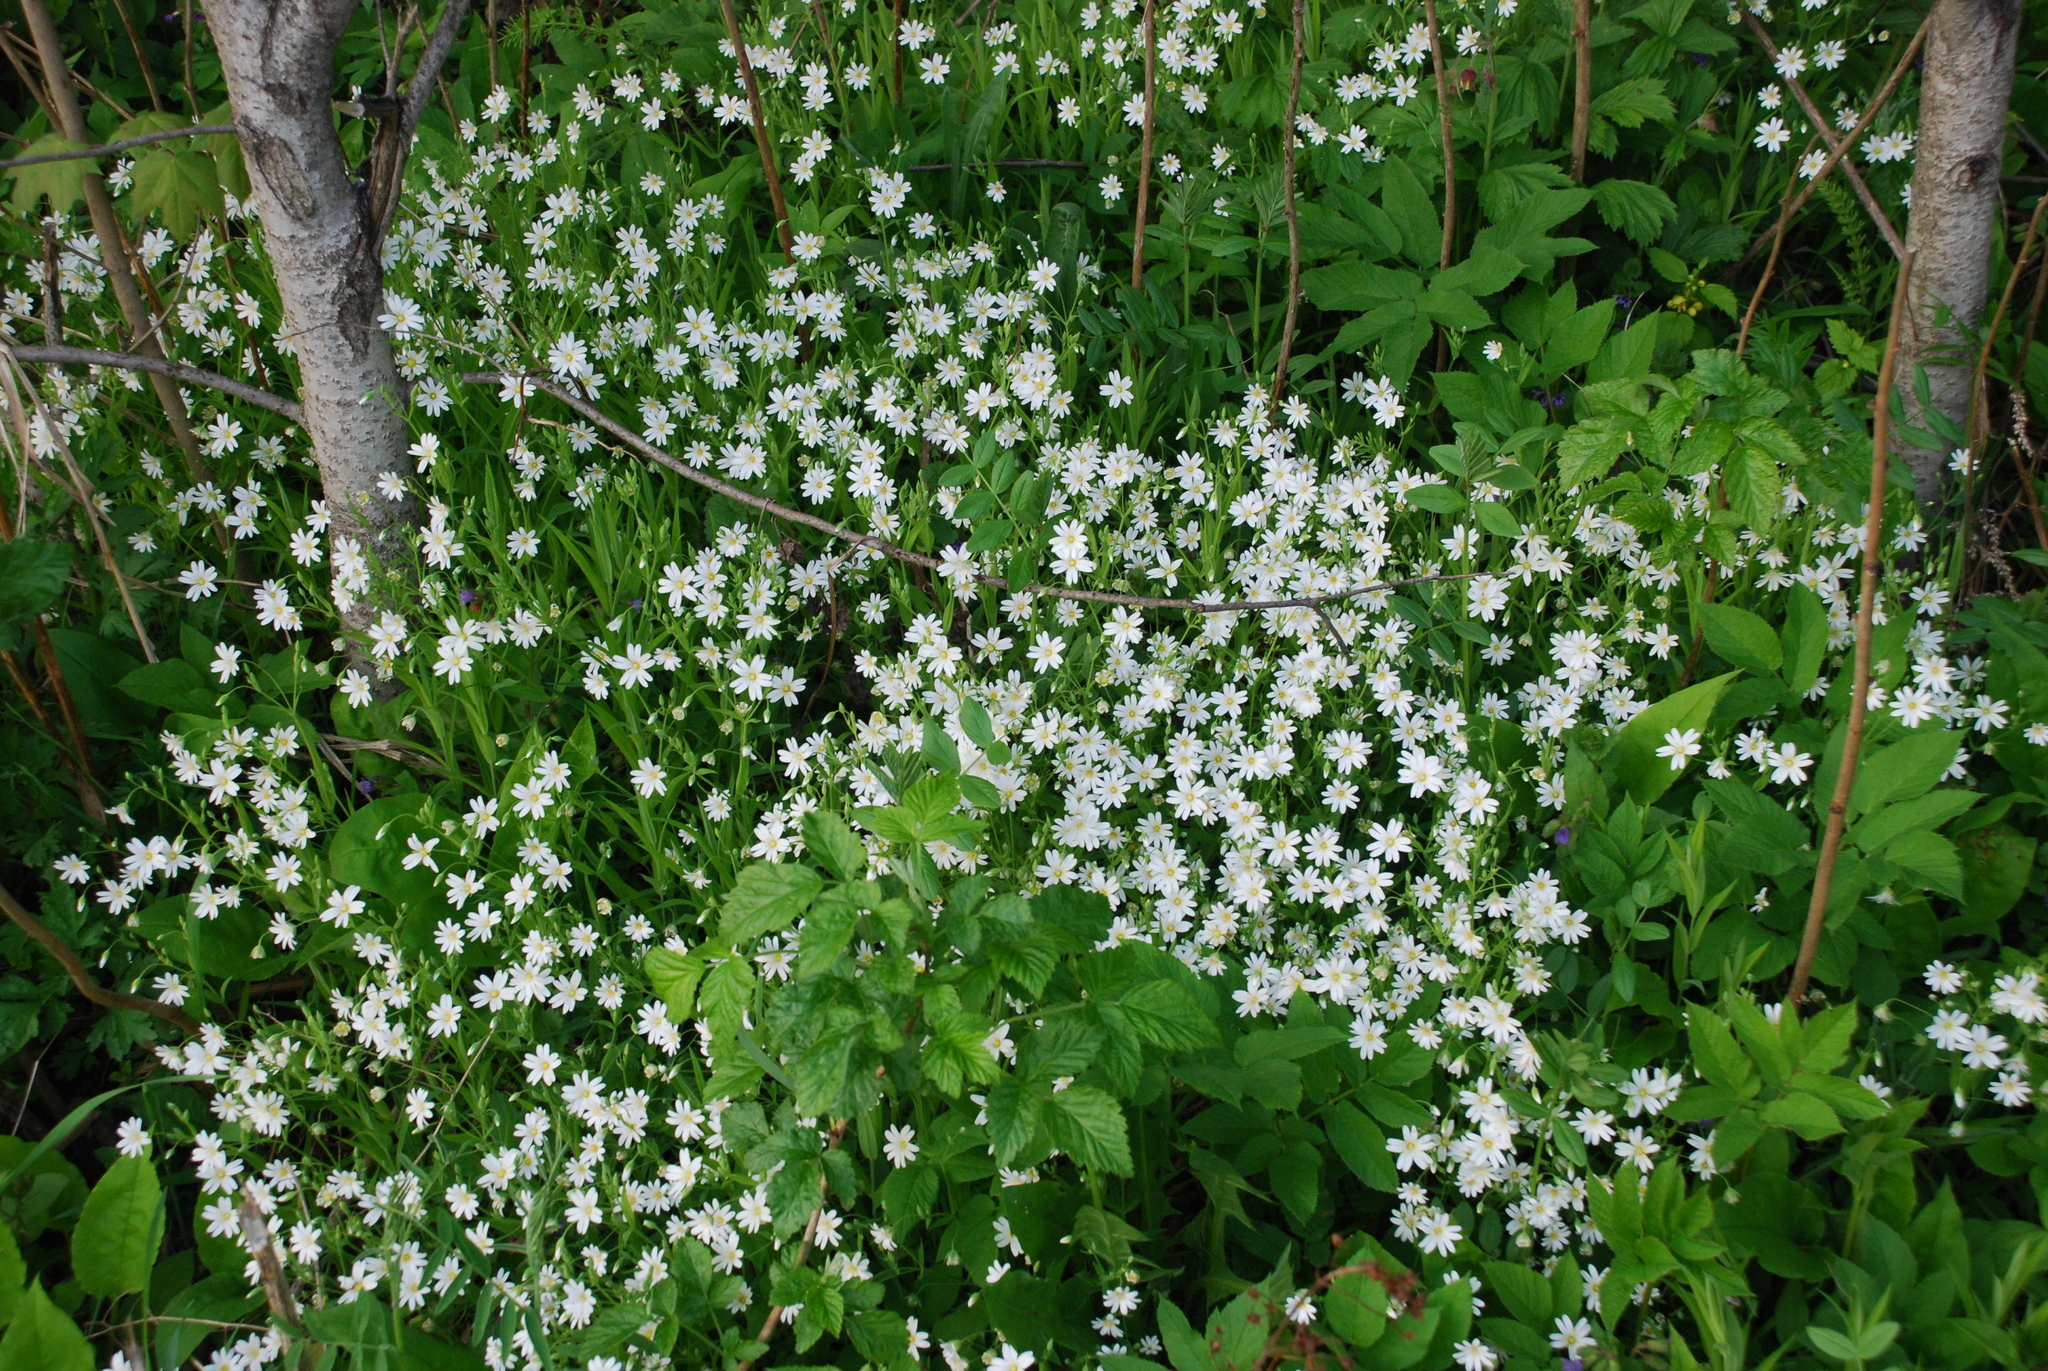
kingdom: Plantae
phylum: Tracheophyta
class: Magnoliopsida
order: Caryophyllales
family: Caryophyllaceae
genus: Rabelera
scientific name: Rabelera holostea
